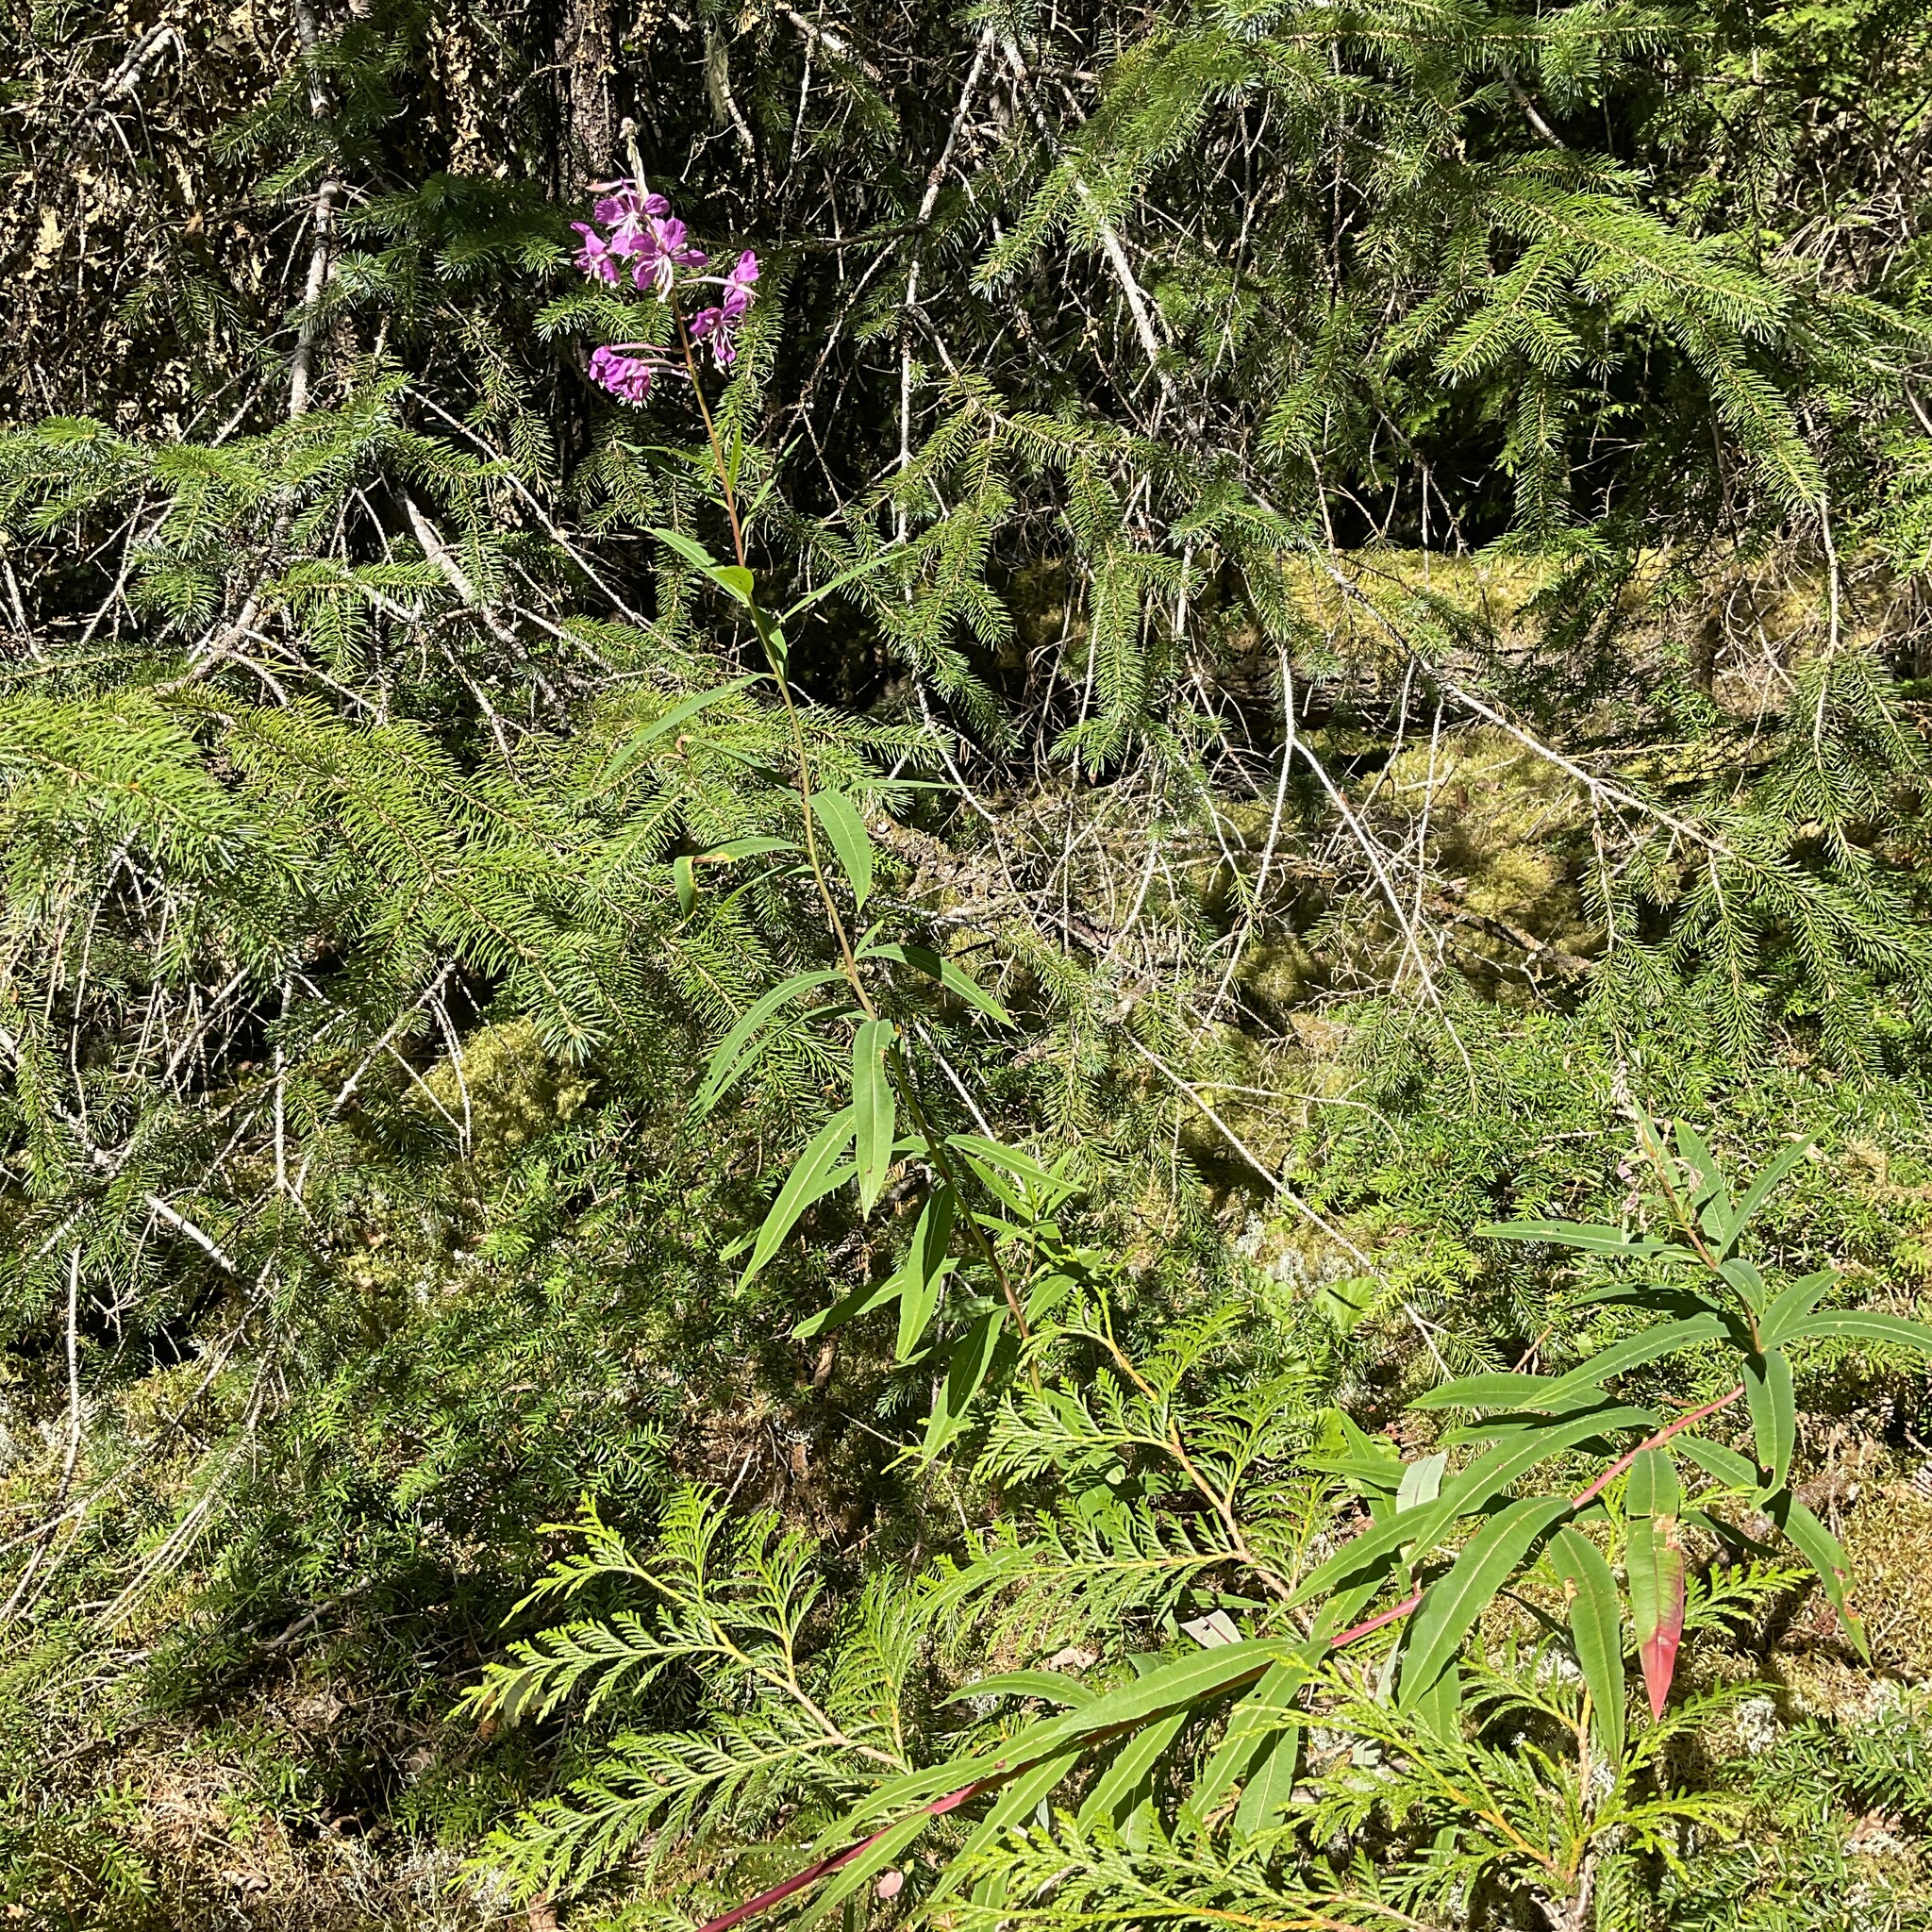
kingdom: Plantae
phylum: Tracheophyta
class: Magnoliopsida
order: Myrtales
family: Onagraceae
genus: Chamaenerion
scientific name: Chamaenerion angustifolium
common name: Fireweed
